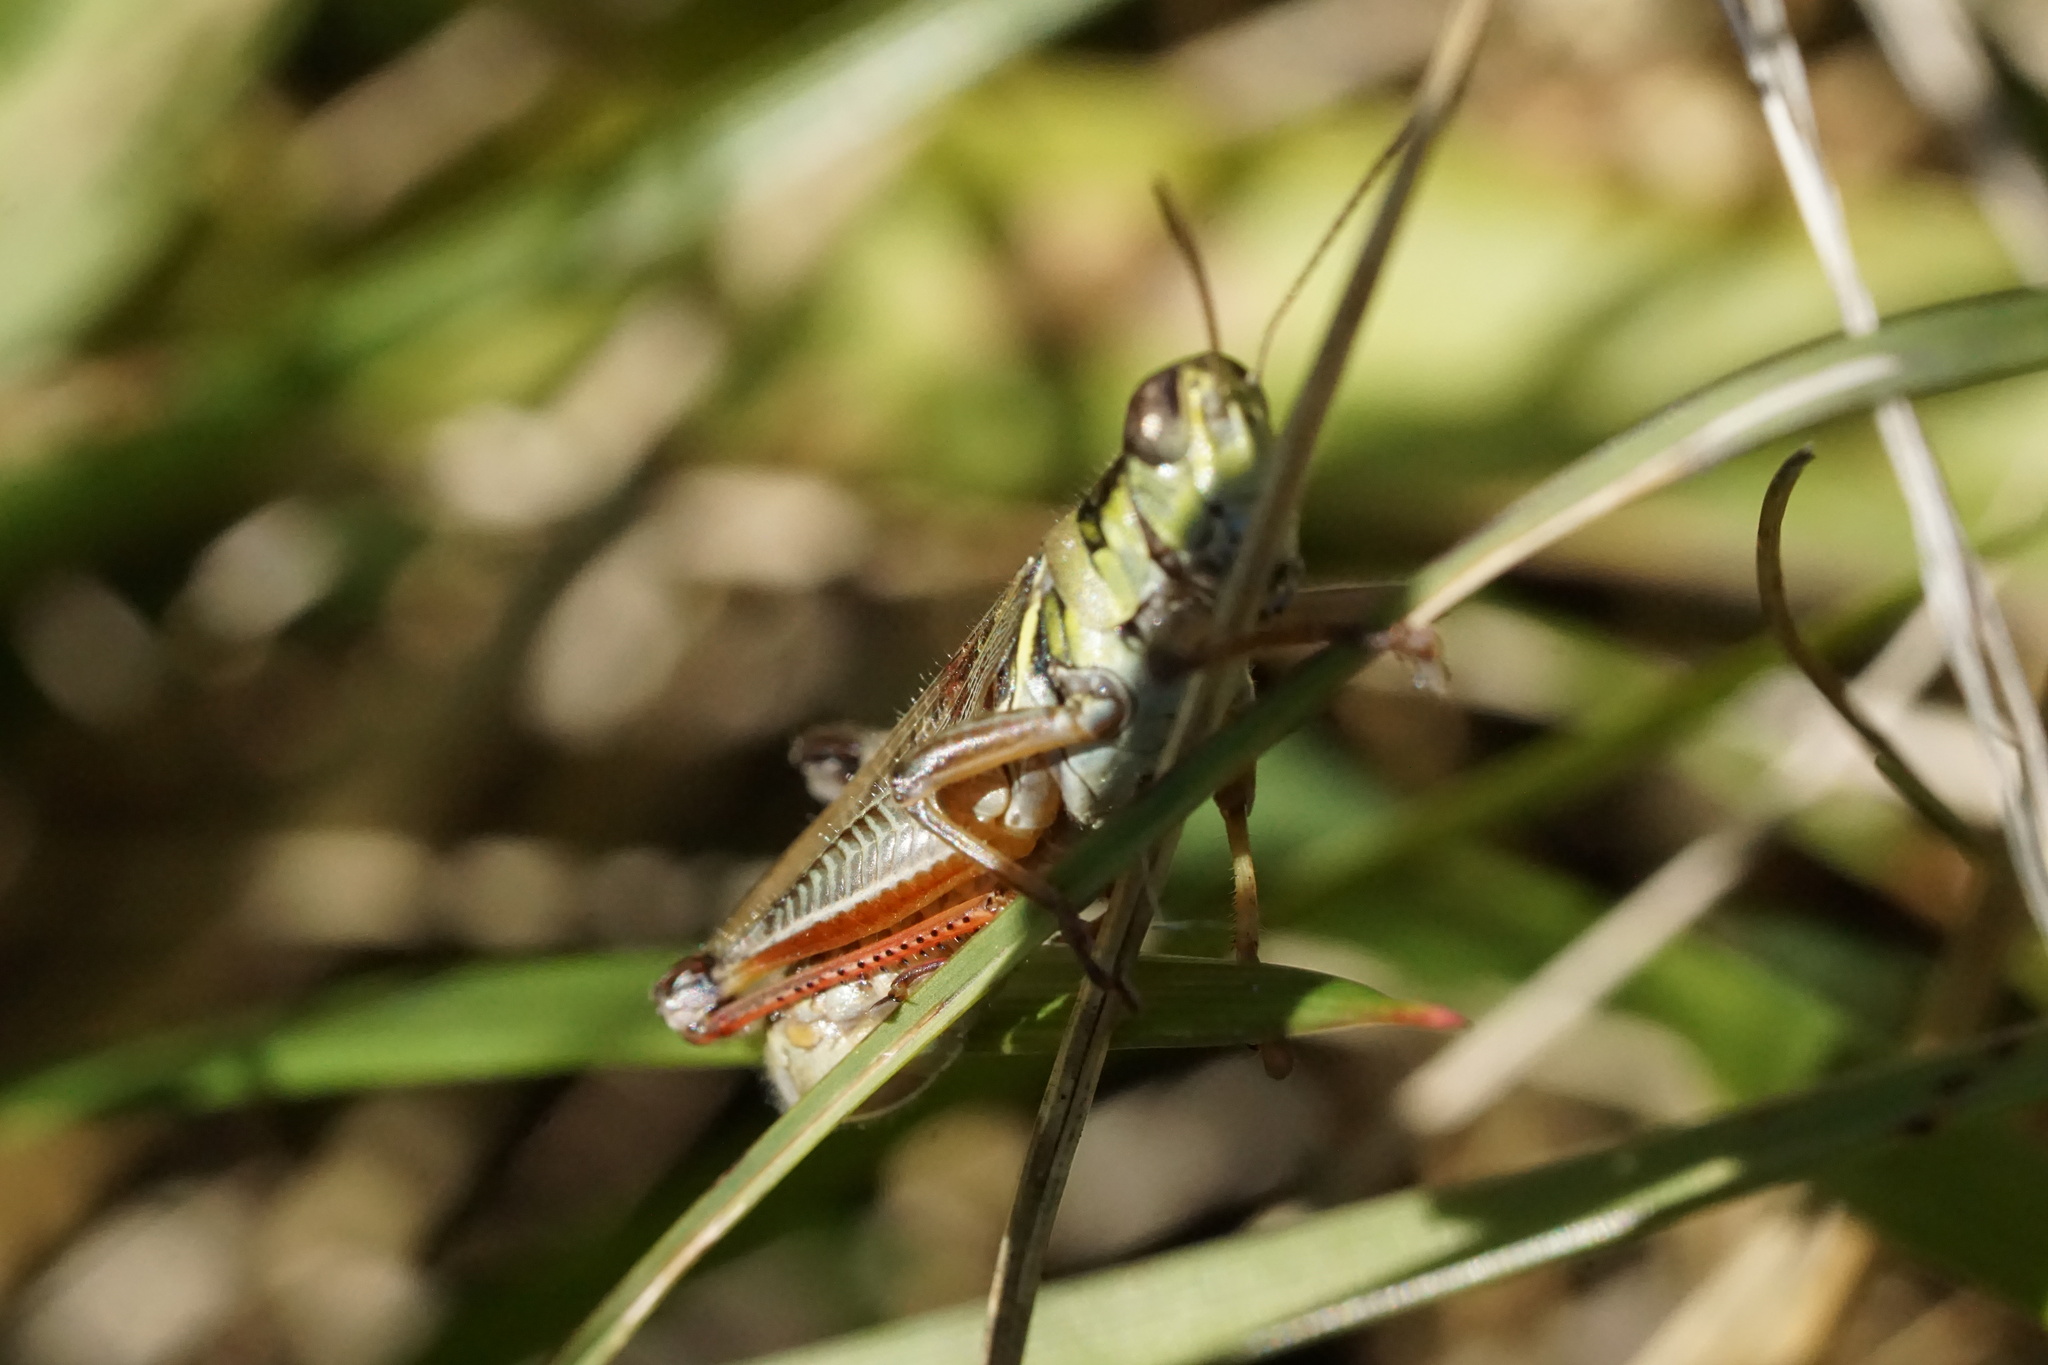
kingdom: Animalia
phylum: Arthropoda
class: Insecta
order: Orthoptera
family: Acrididae
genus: Melanoplus
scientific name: Melanoplus femurrubrum
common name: Red-legged grasshopper
